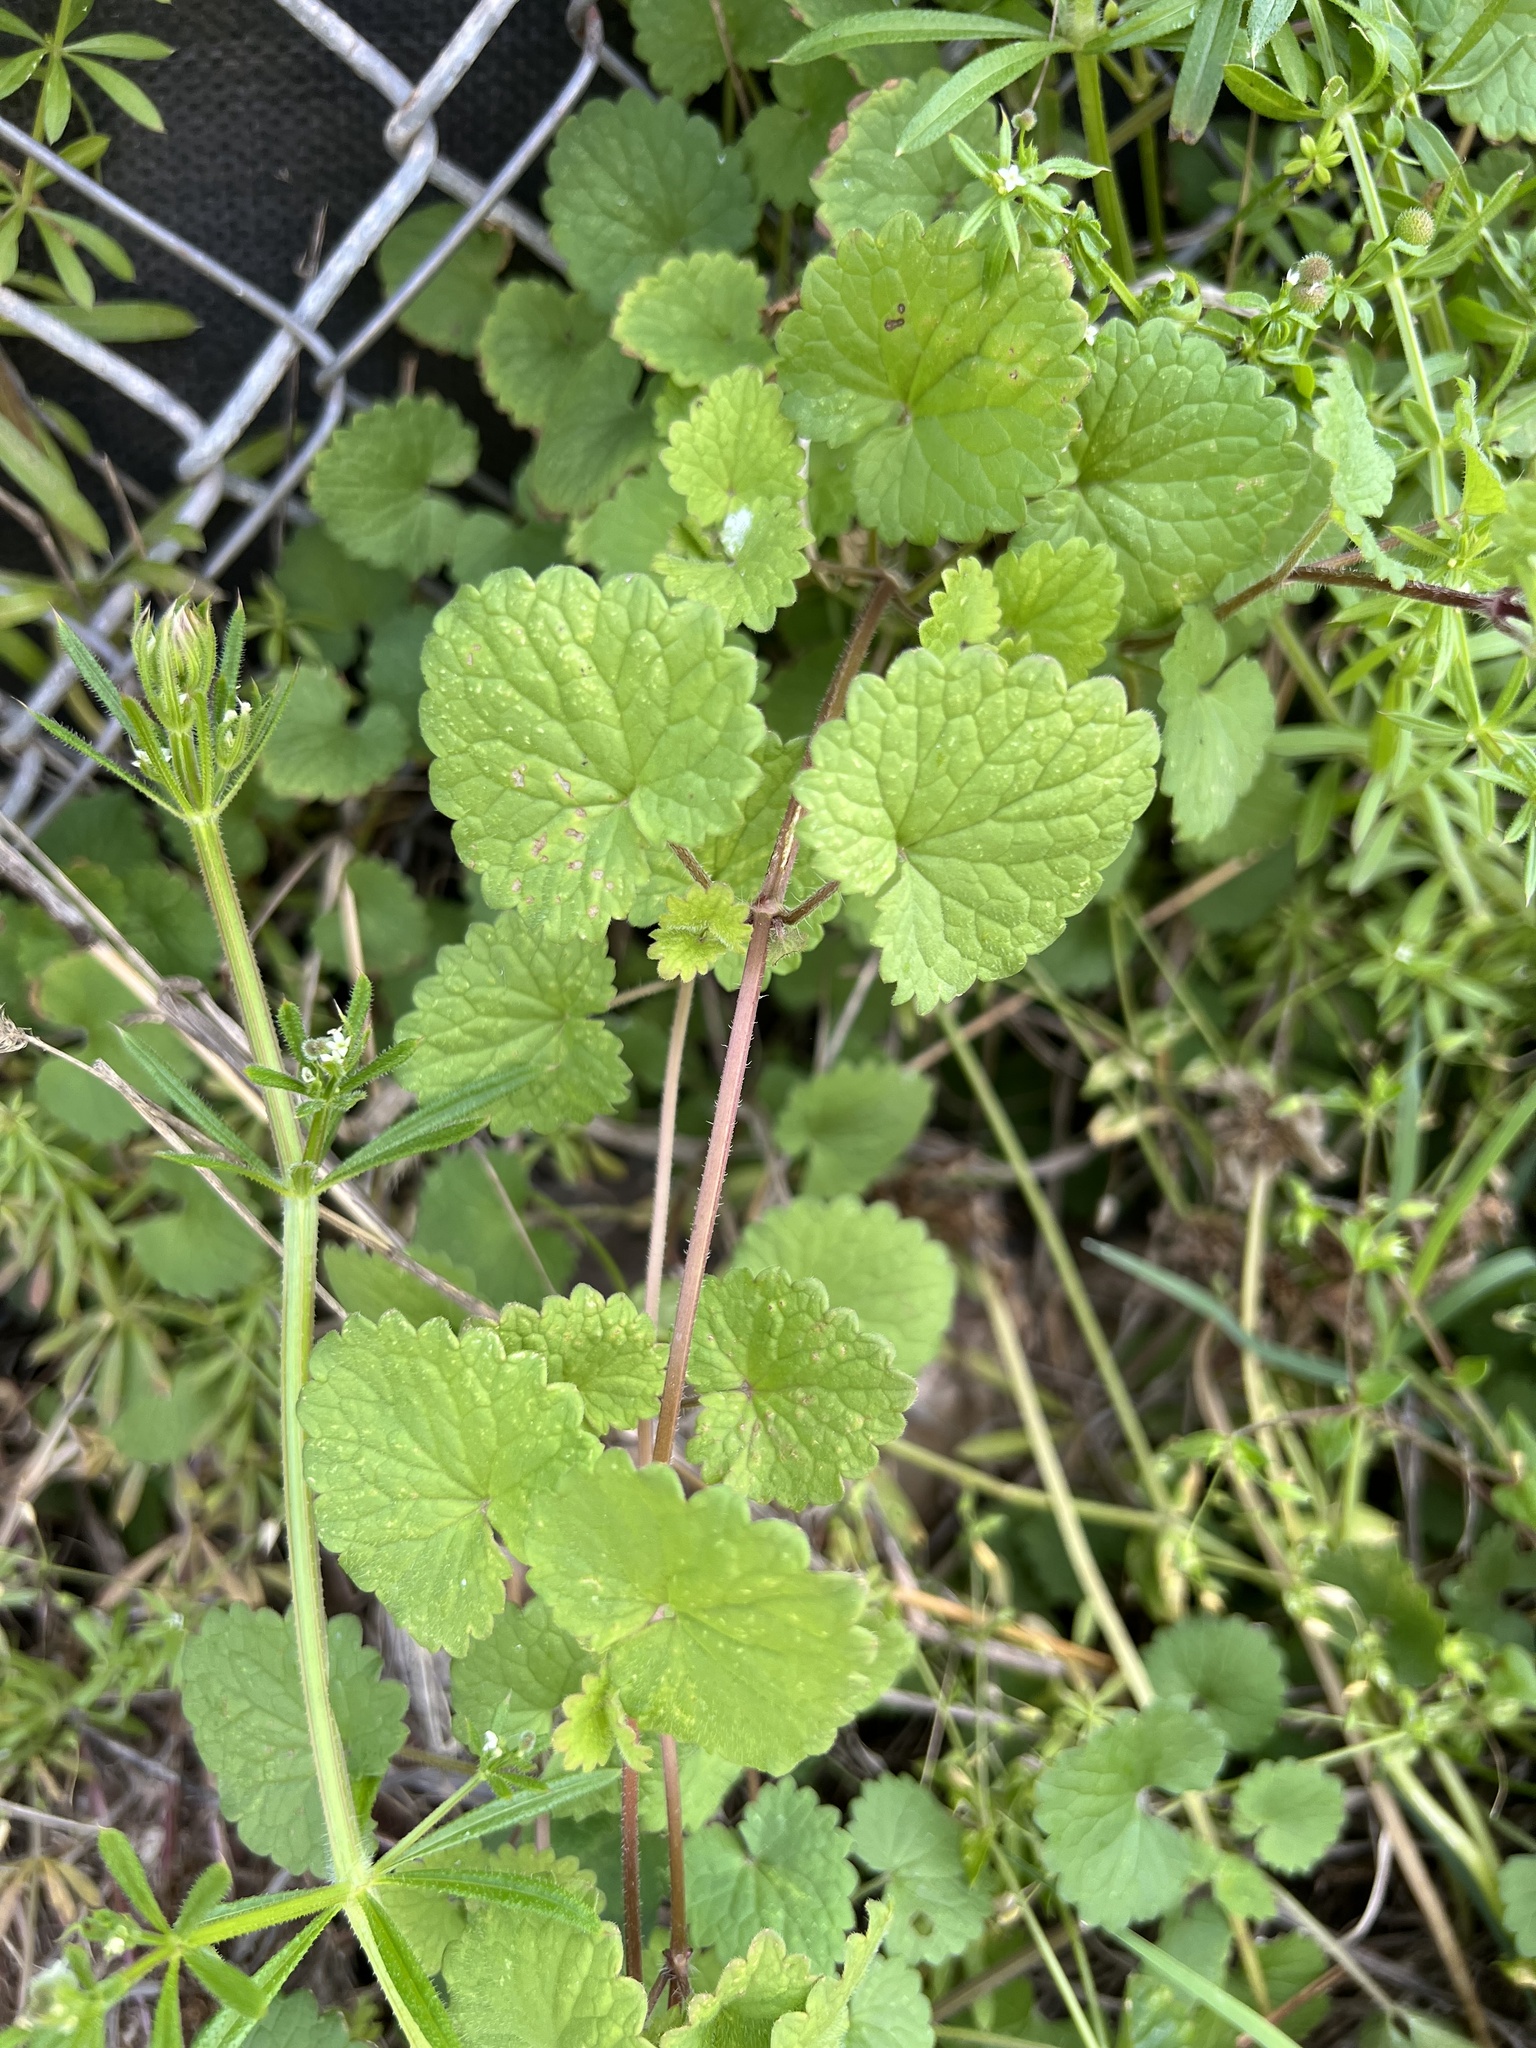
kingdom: Plantae
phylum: Tracheophyta
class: Magnoliopsida
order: Lamiales
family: Lamiaceae
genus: Glechoma
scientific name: Glechoma hederacea
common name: Ground ivy
